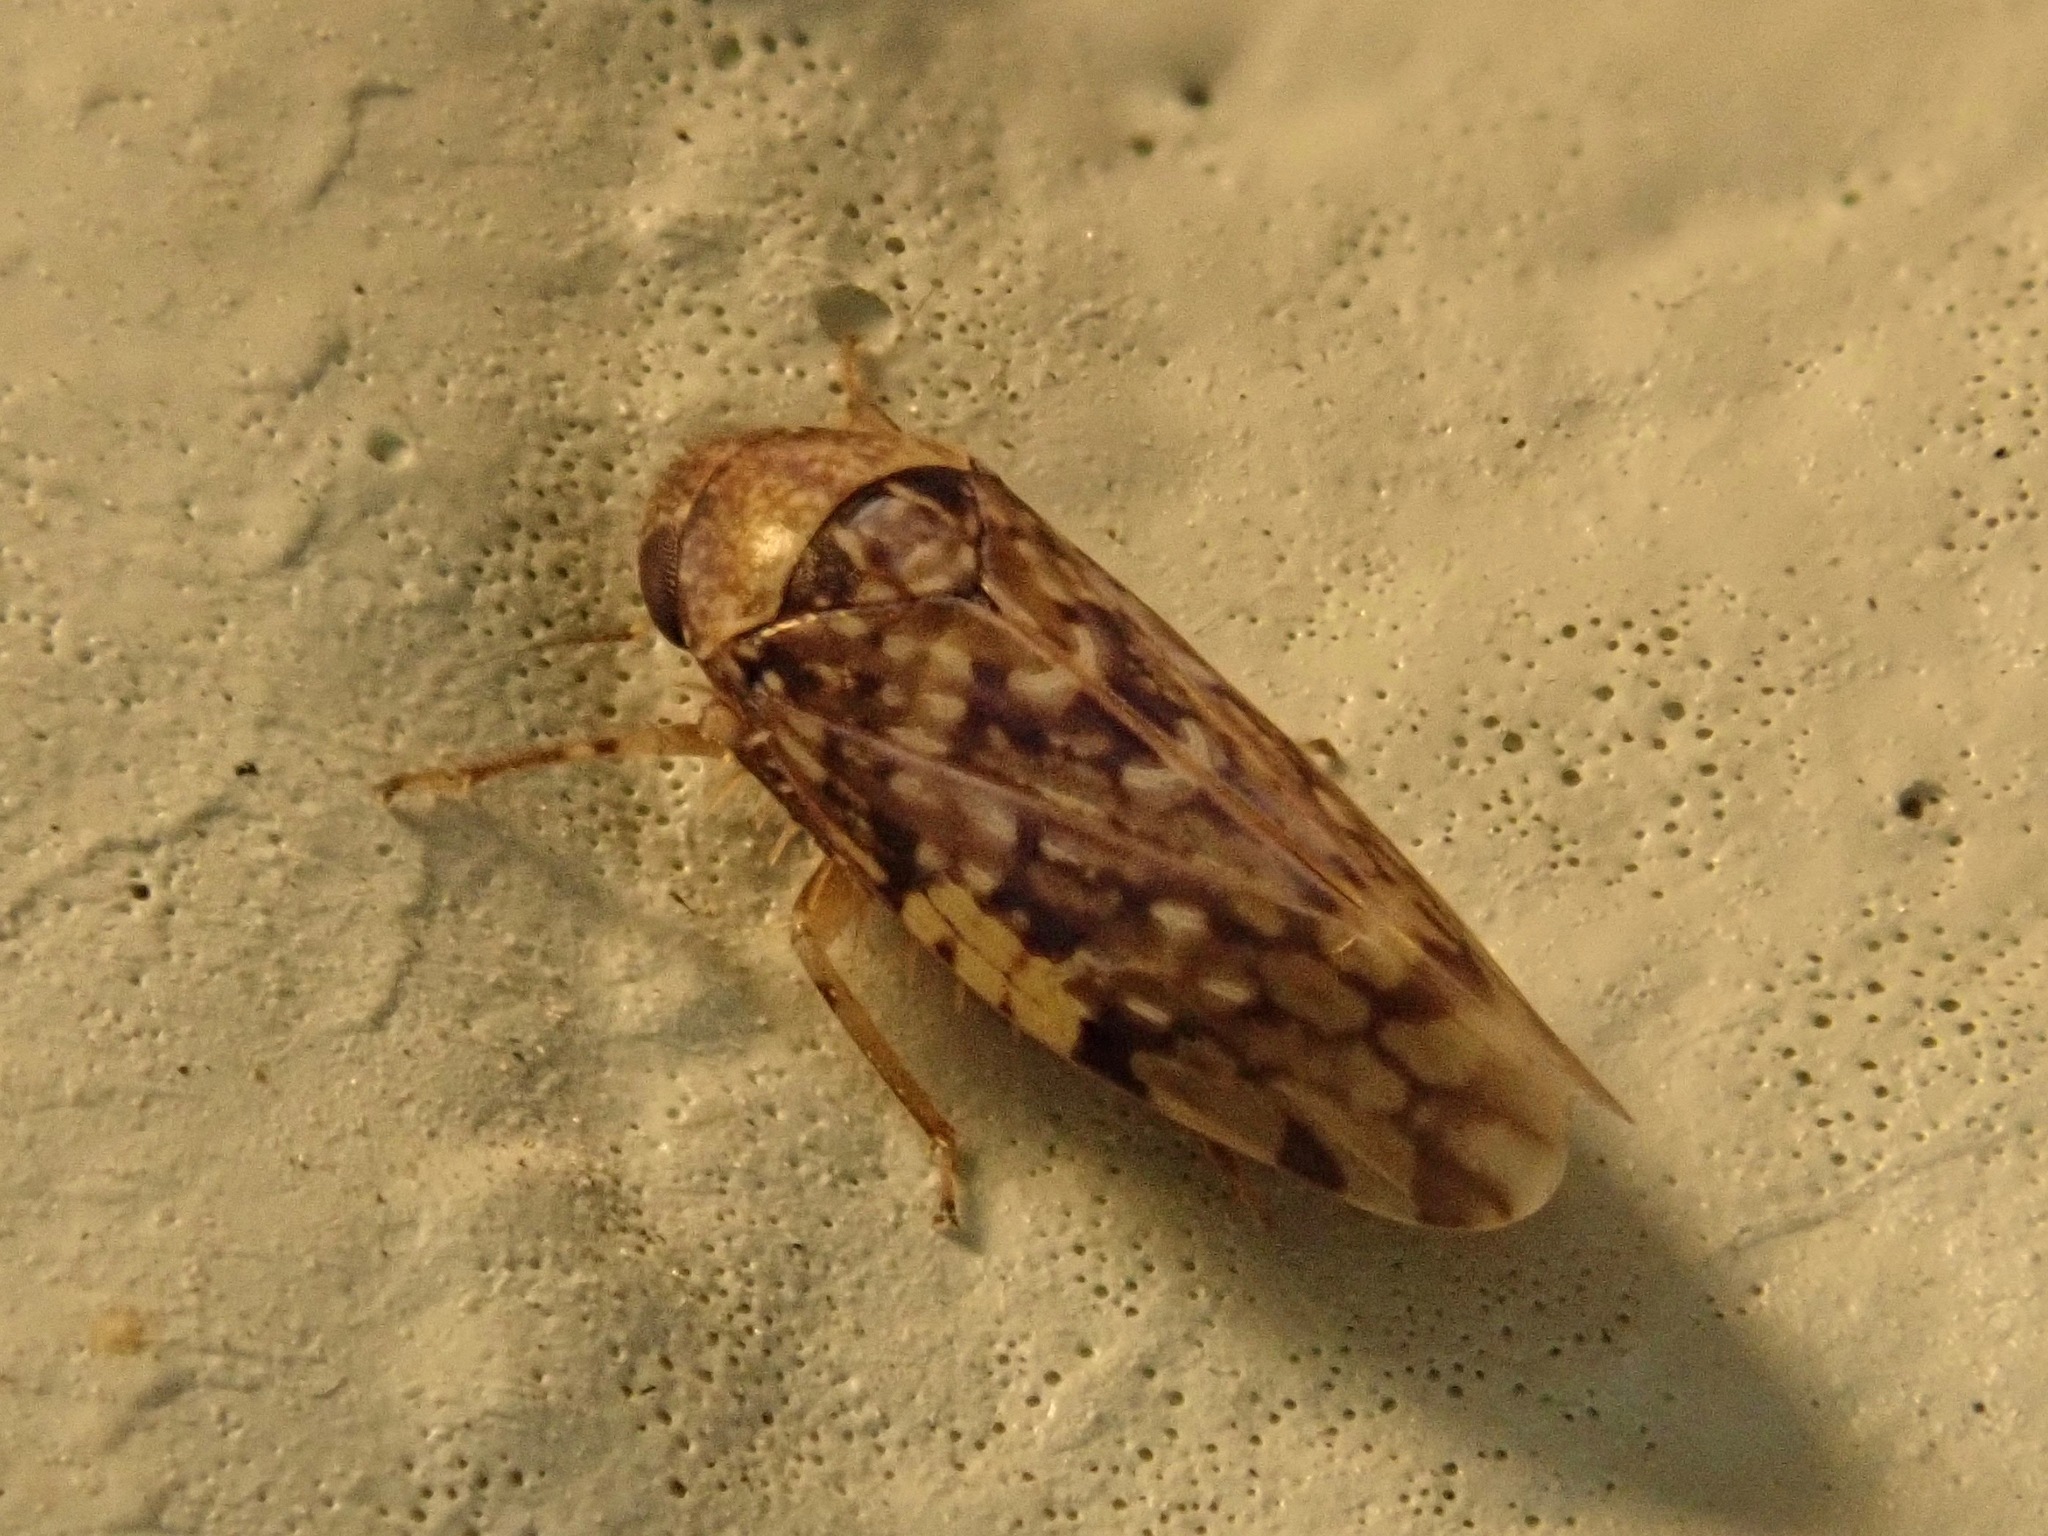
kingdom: Animalia
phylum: Arthropoda
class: Insecta
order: Hemiptera
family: Cicadellidae
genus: Xestocephalus
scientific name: Xestocephalus tessellatus
